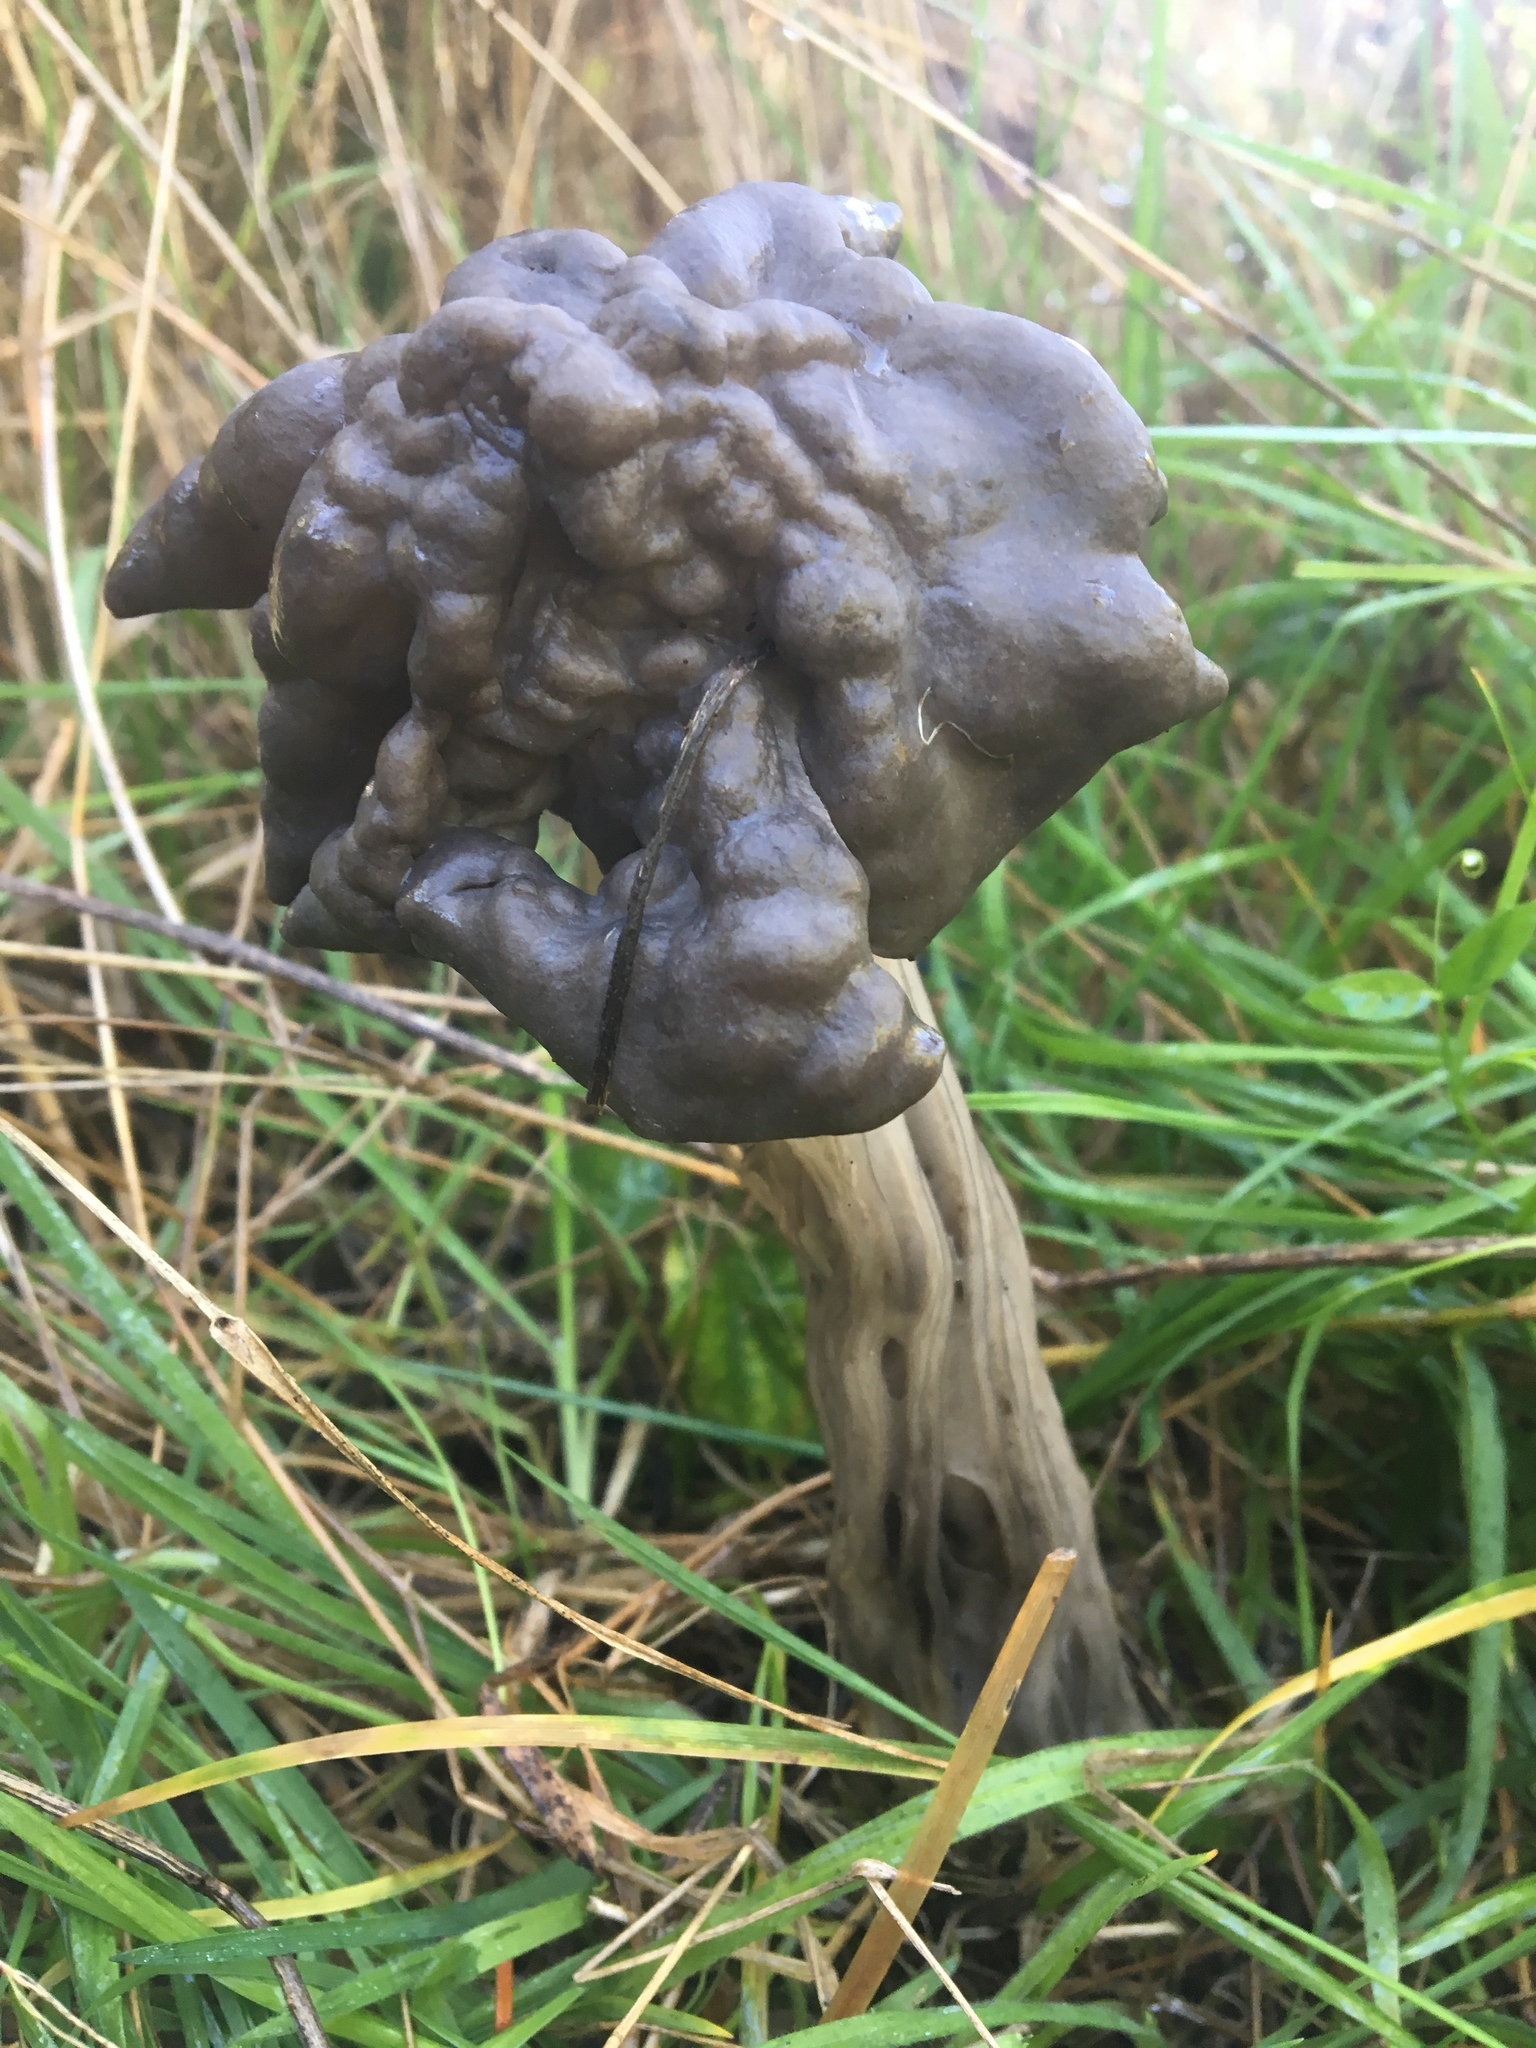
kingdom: Fungi
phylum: Ascomycota
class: Pezizomycetes
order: Pezizales
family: Helvellaceae
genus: Helvella
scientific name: Helvella vespertina
